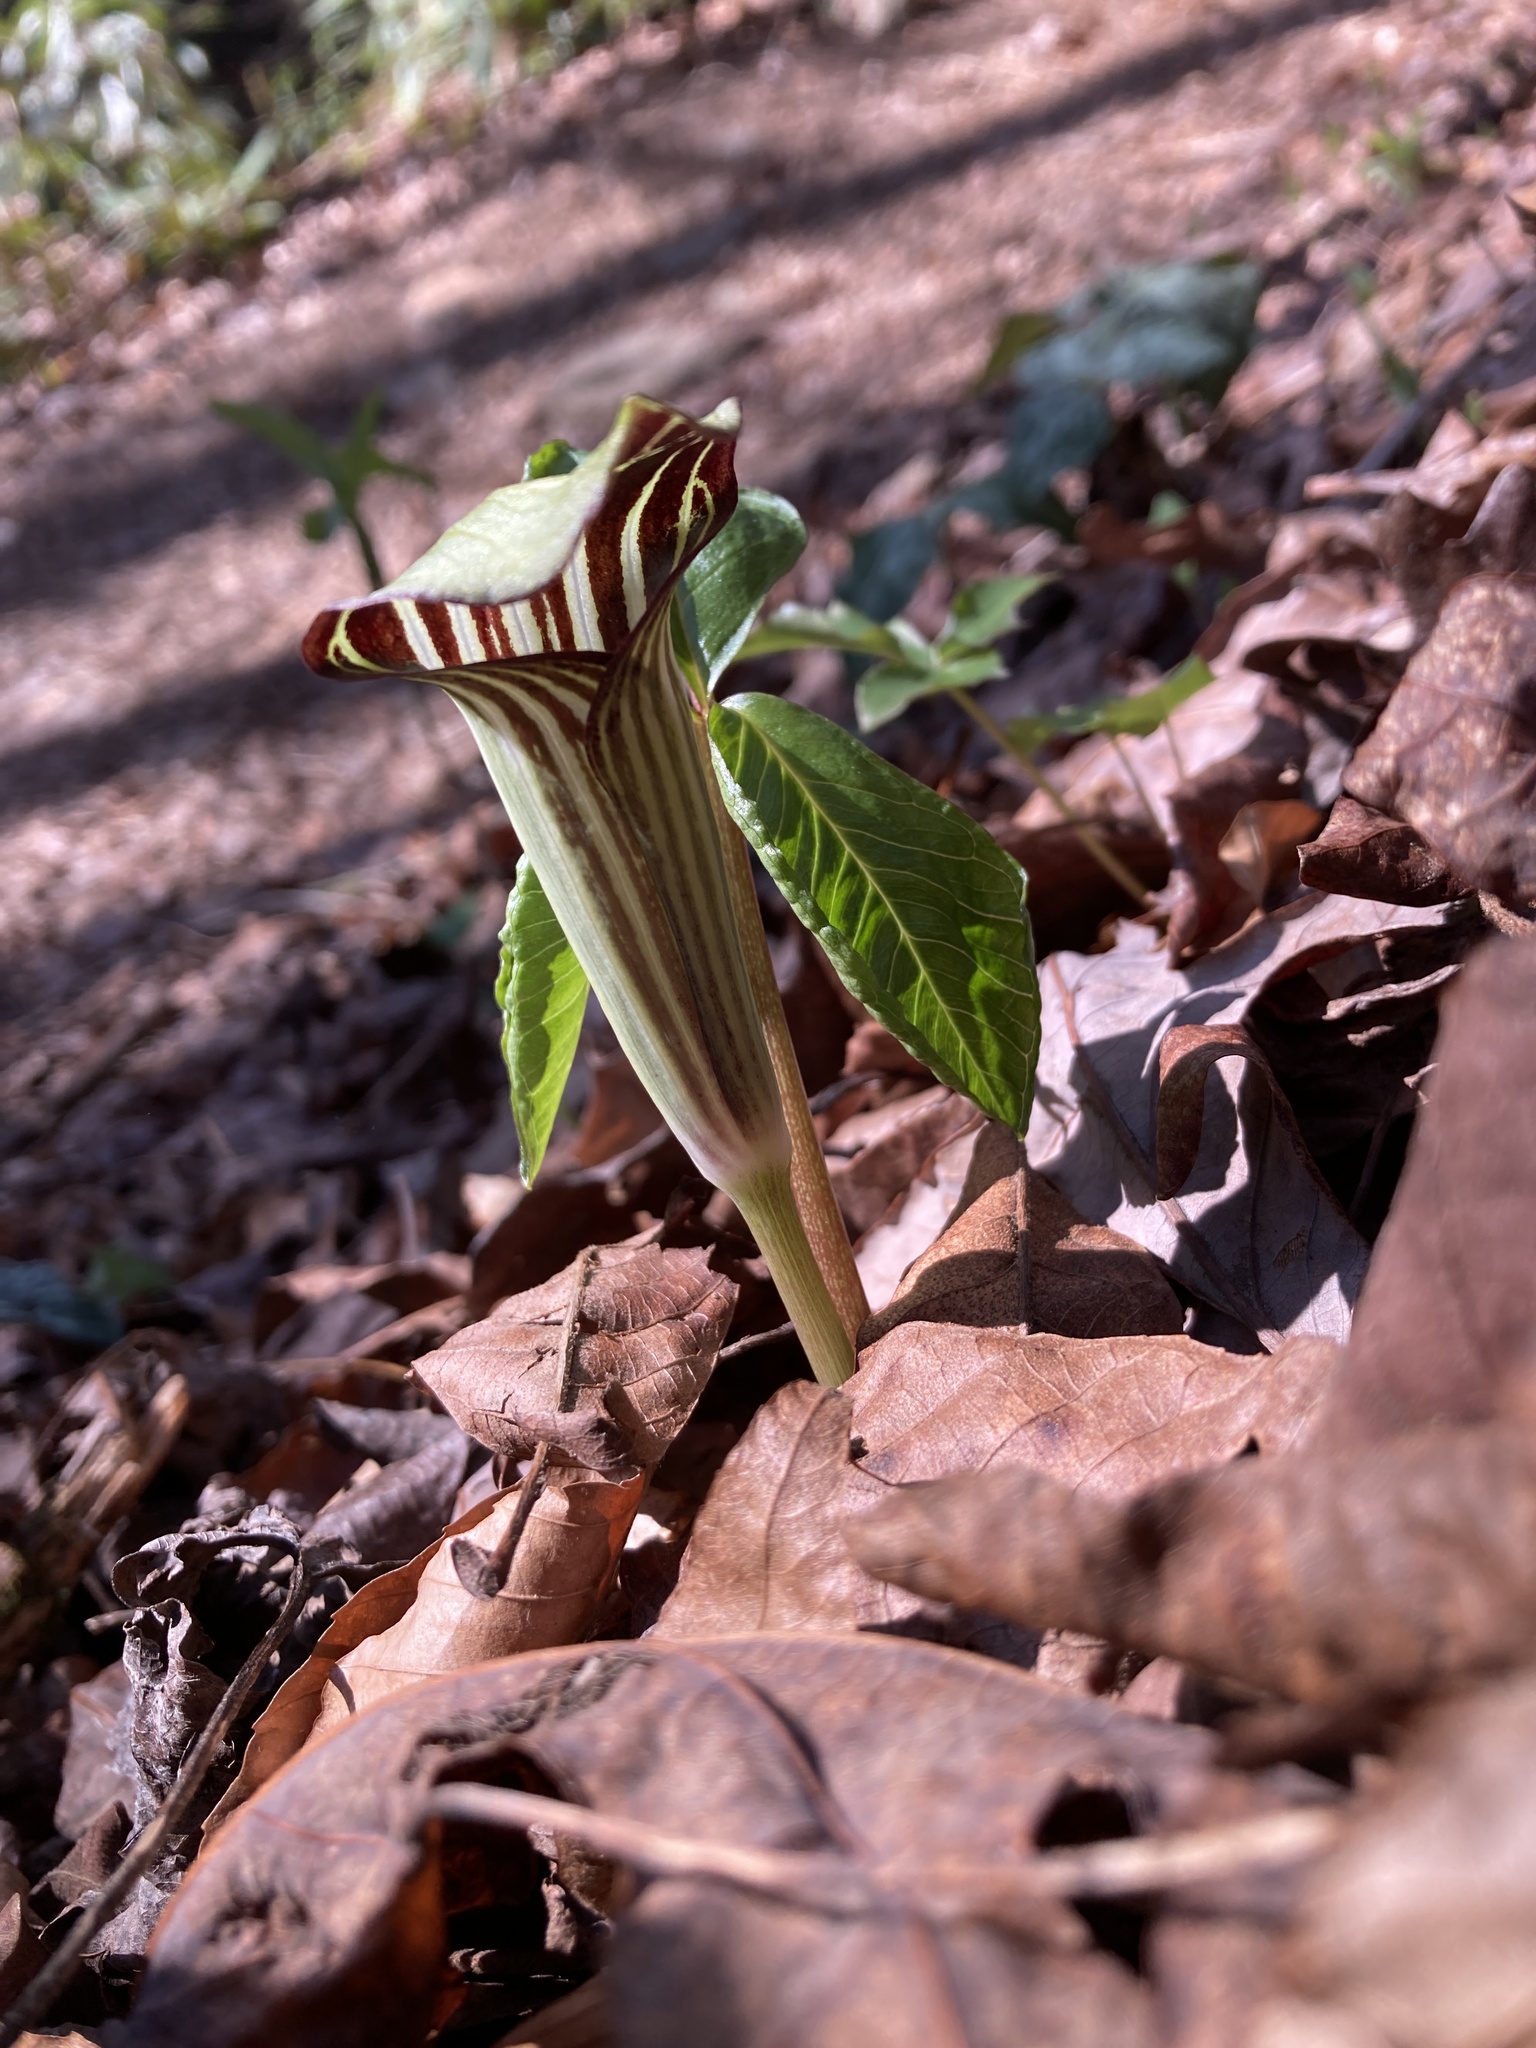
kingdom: Plantae
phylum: Tracheophyta
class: Liliopsida
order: Alismatales
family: Araceae
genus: Arisaema
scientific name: Arisaema triphyllum
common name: Jack-in-the-pulpit
